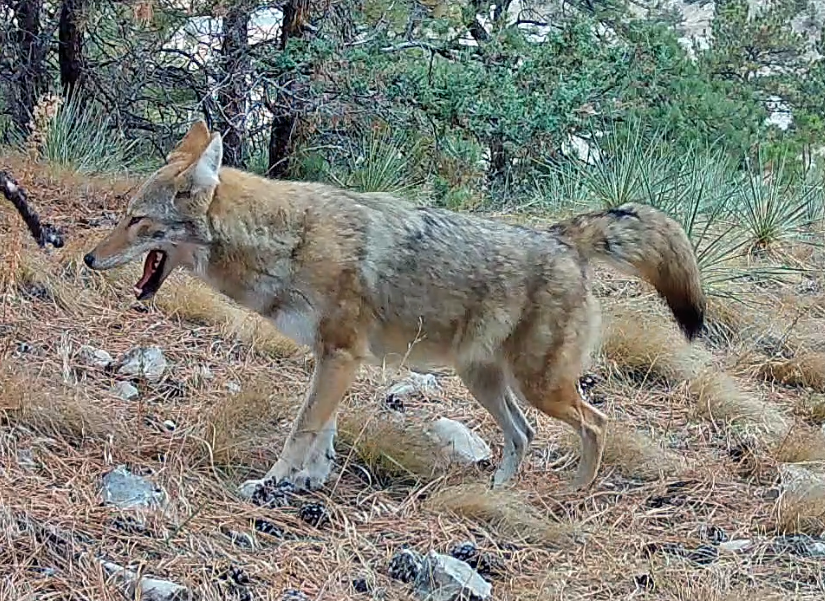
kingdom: Animalia
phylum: Chordata
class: Mammalia
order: Carnivora
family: Canidae
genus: Canis
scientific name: Canis latrans
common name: Coyote
